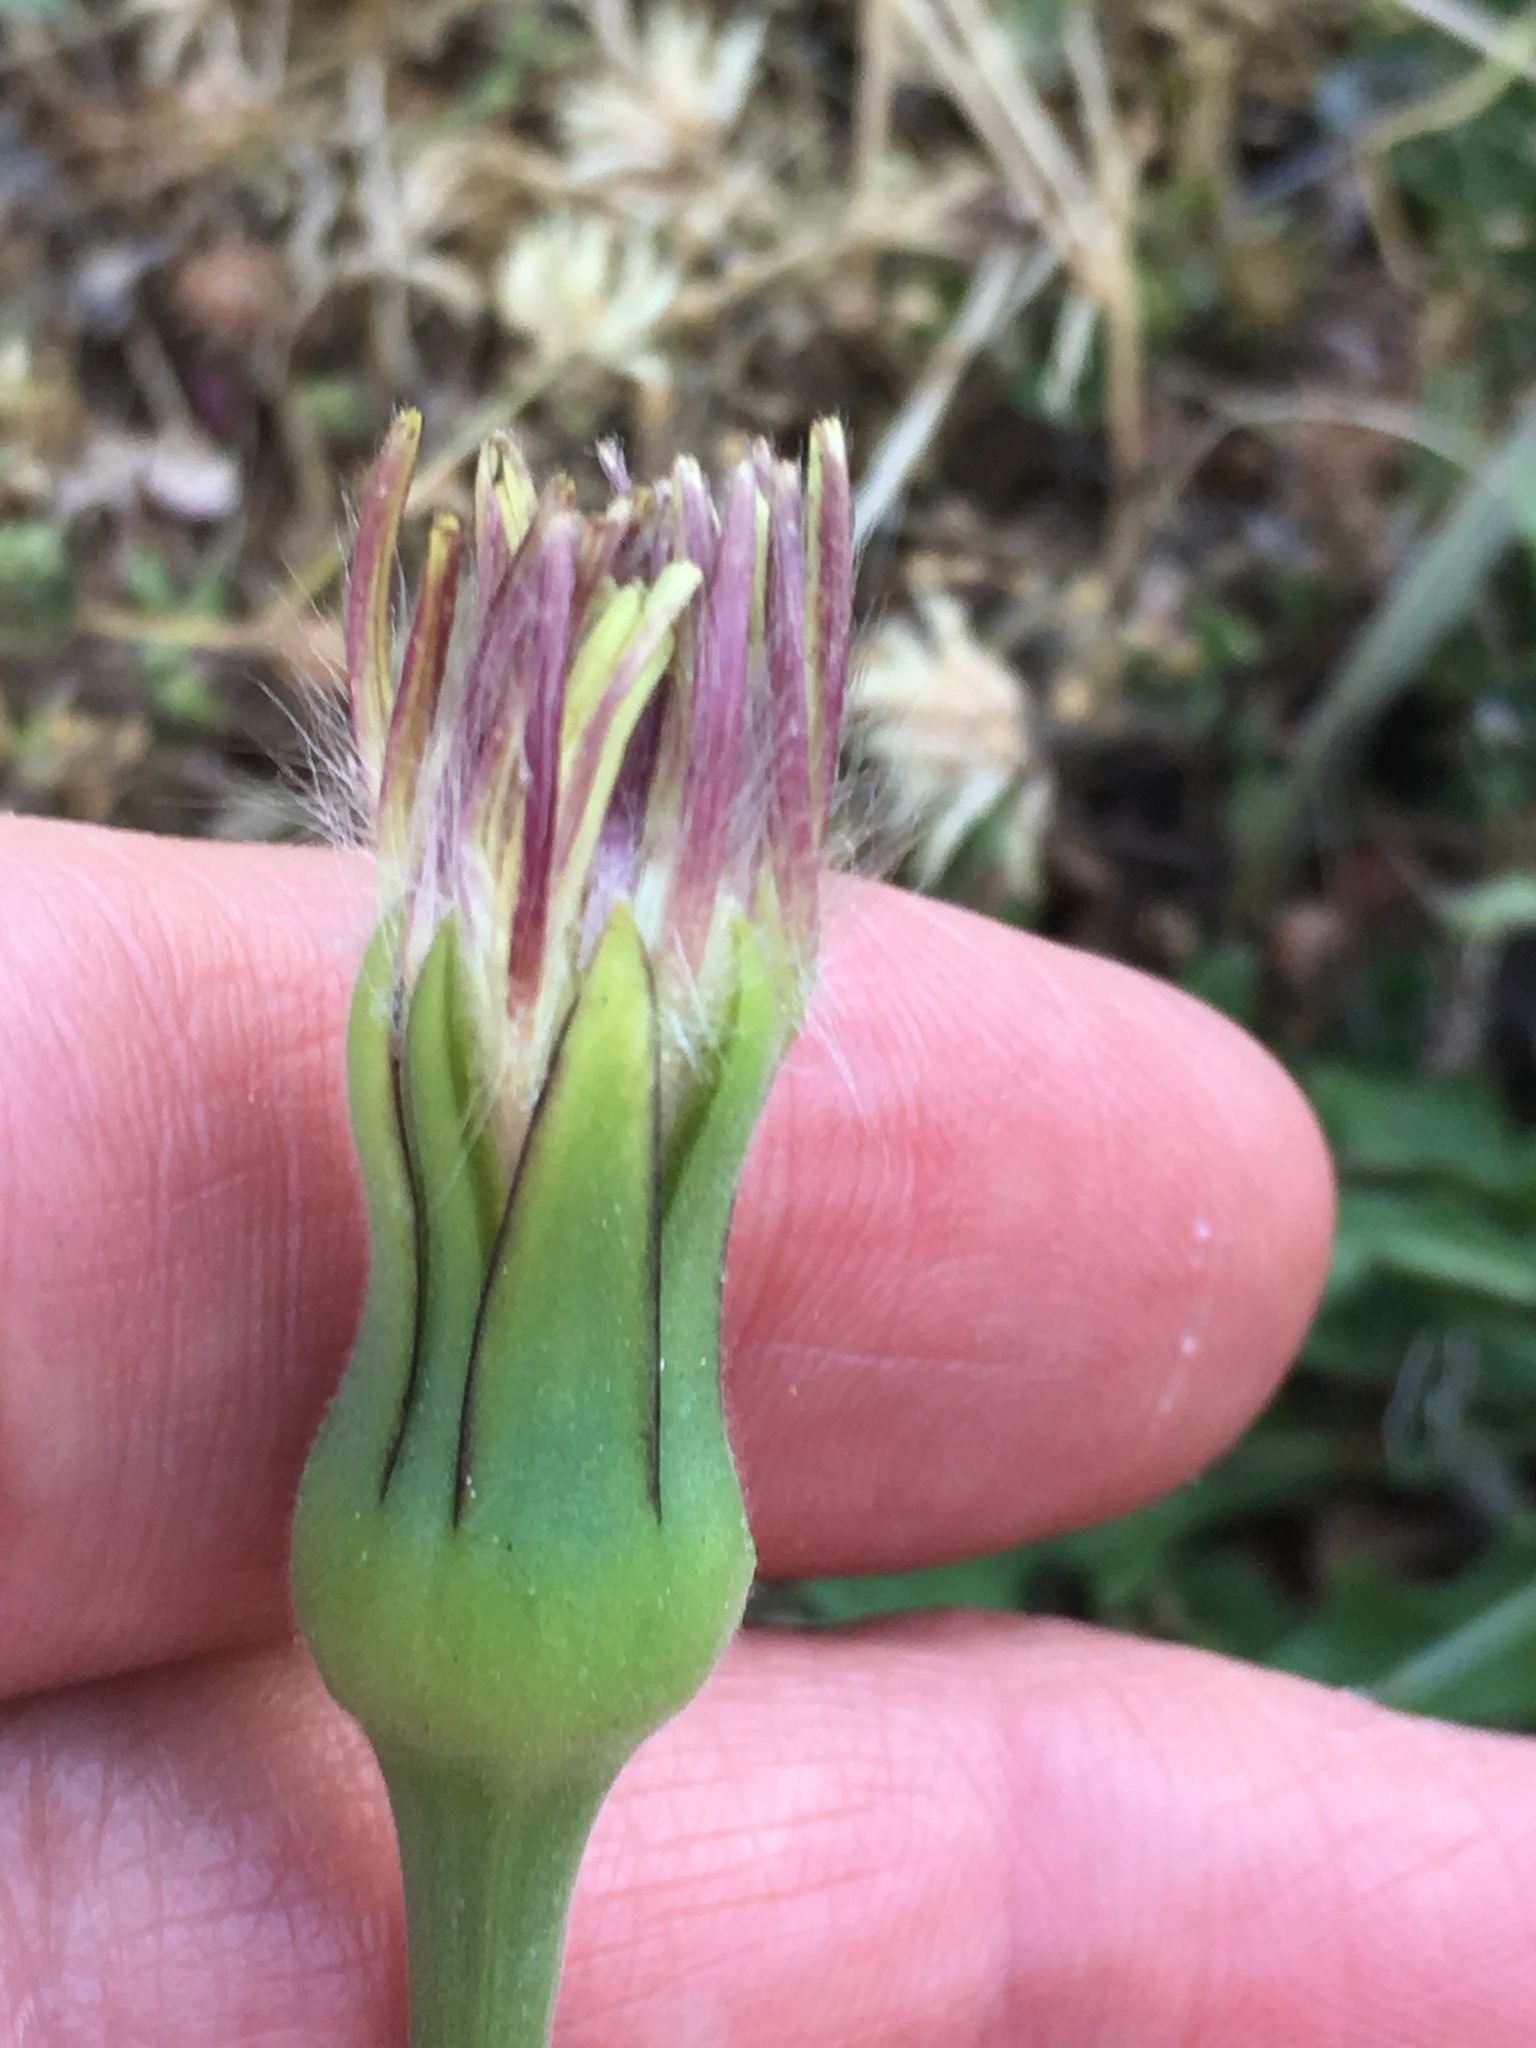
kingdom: Plantae
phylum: Tracheophyta
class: Magnoliopsida
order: Asterales
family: Asteraceae
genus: Urospermum
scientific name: Urospermum dalechampii
